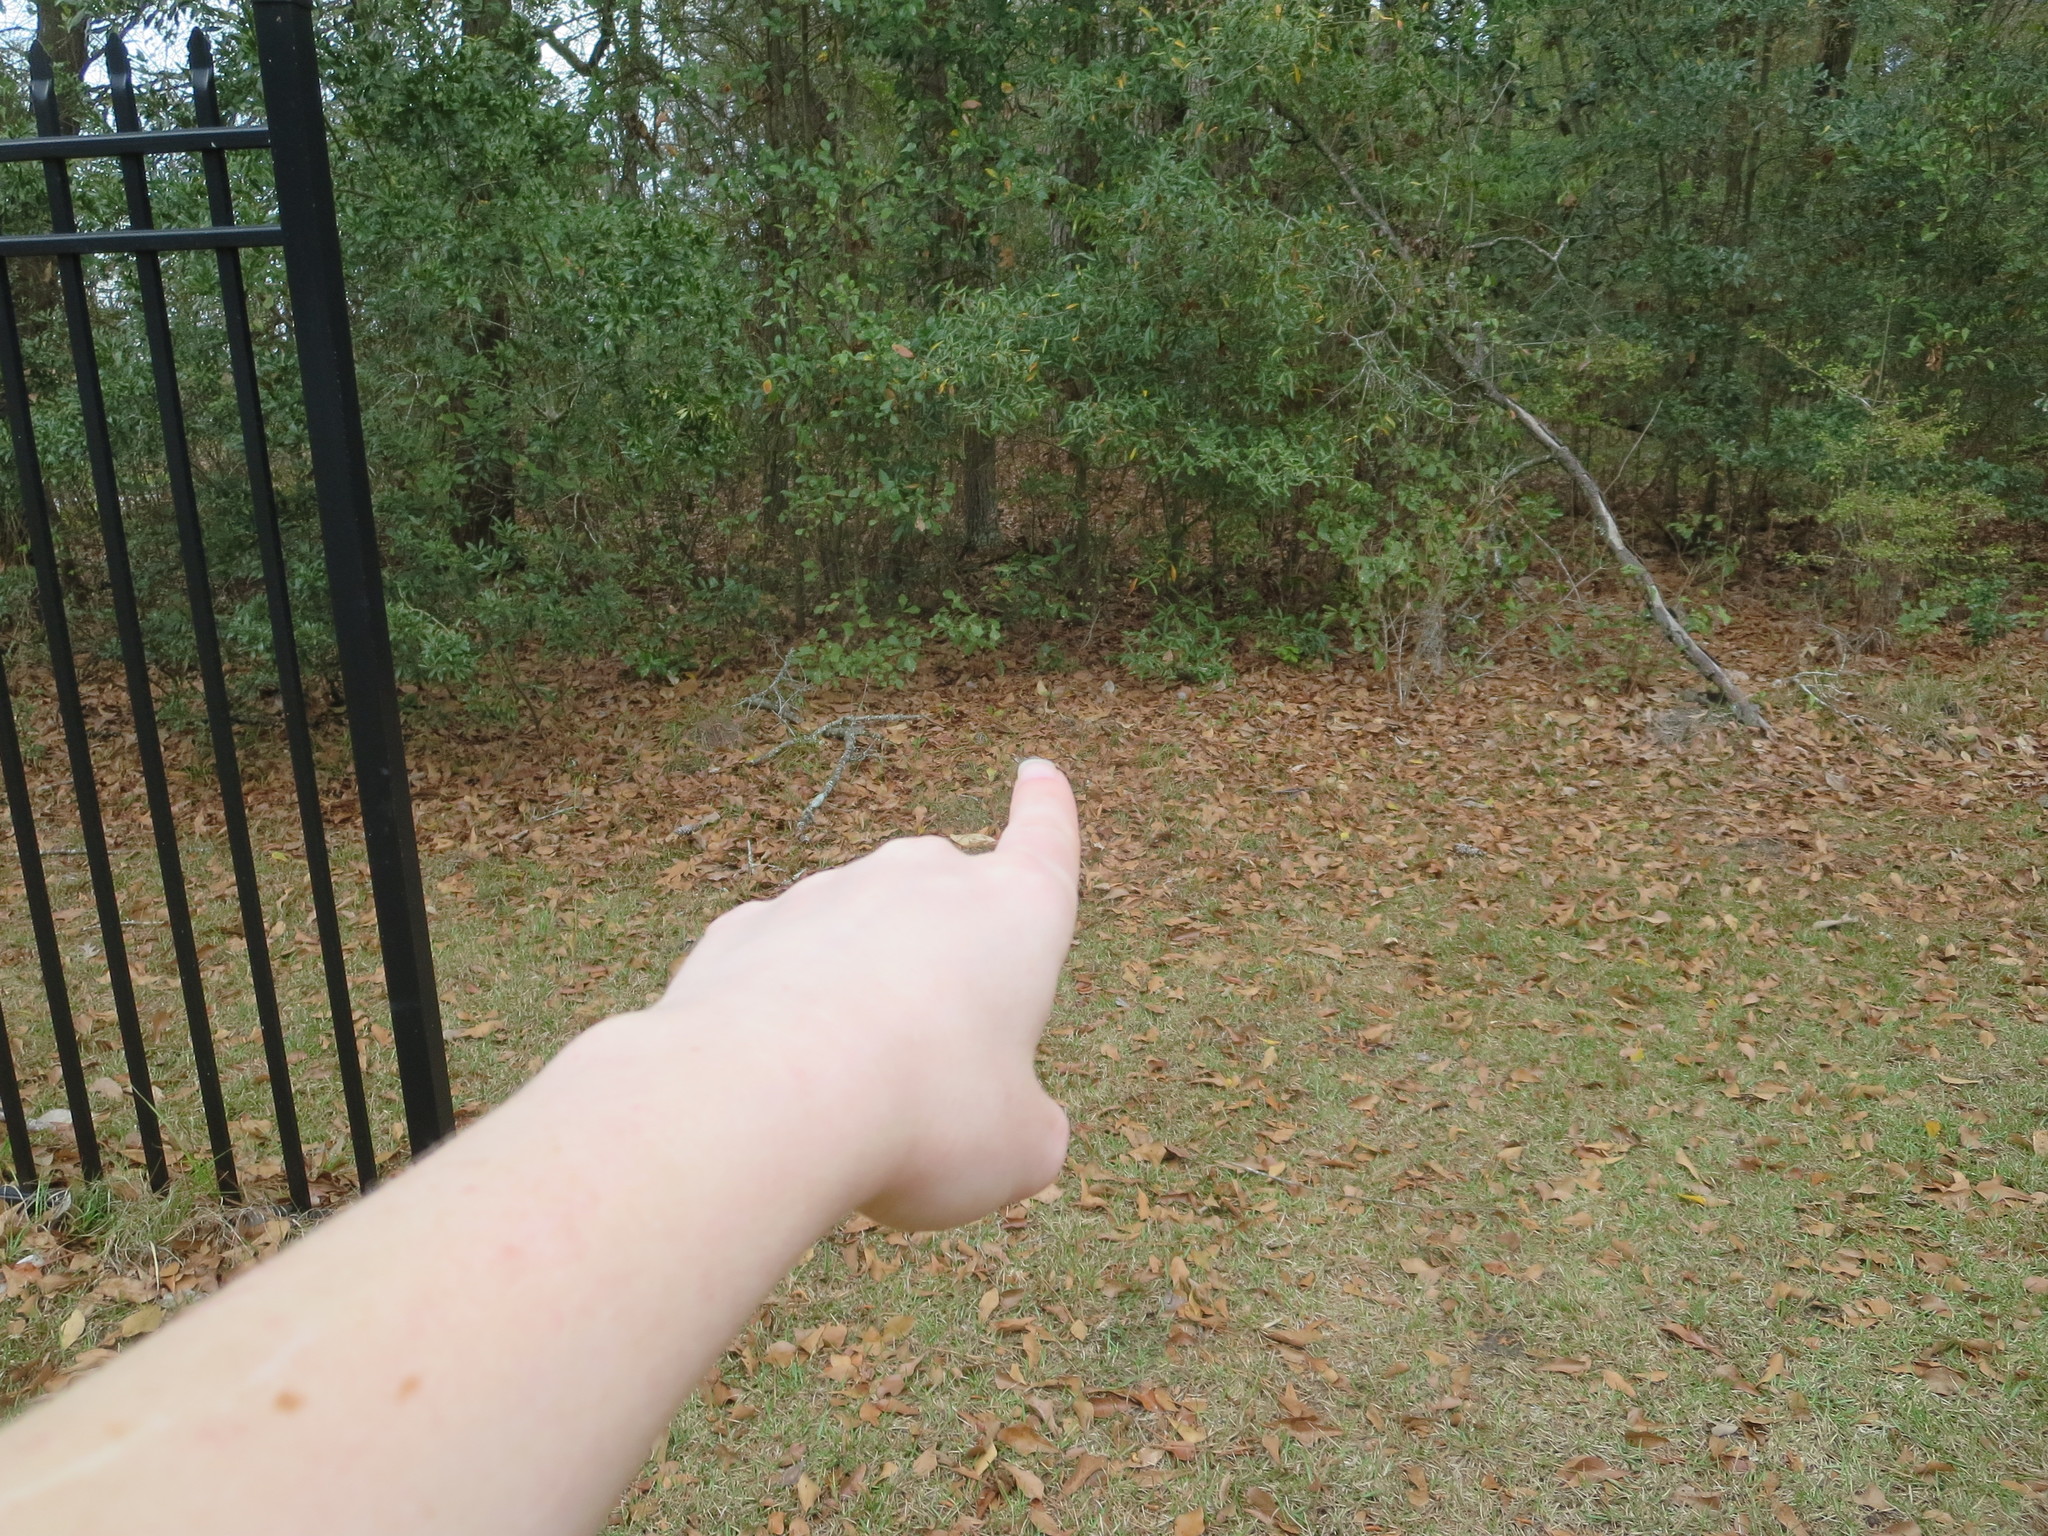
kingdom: Plantae
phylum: Tracheophyta
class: Magnoliopsida
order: Magnoliales
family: Annonaceae
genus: Asimina
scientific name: Asimina parviflora
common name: Dwarf pawpaw
